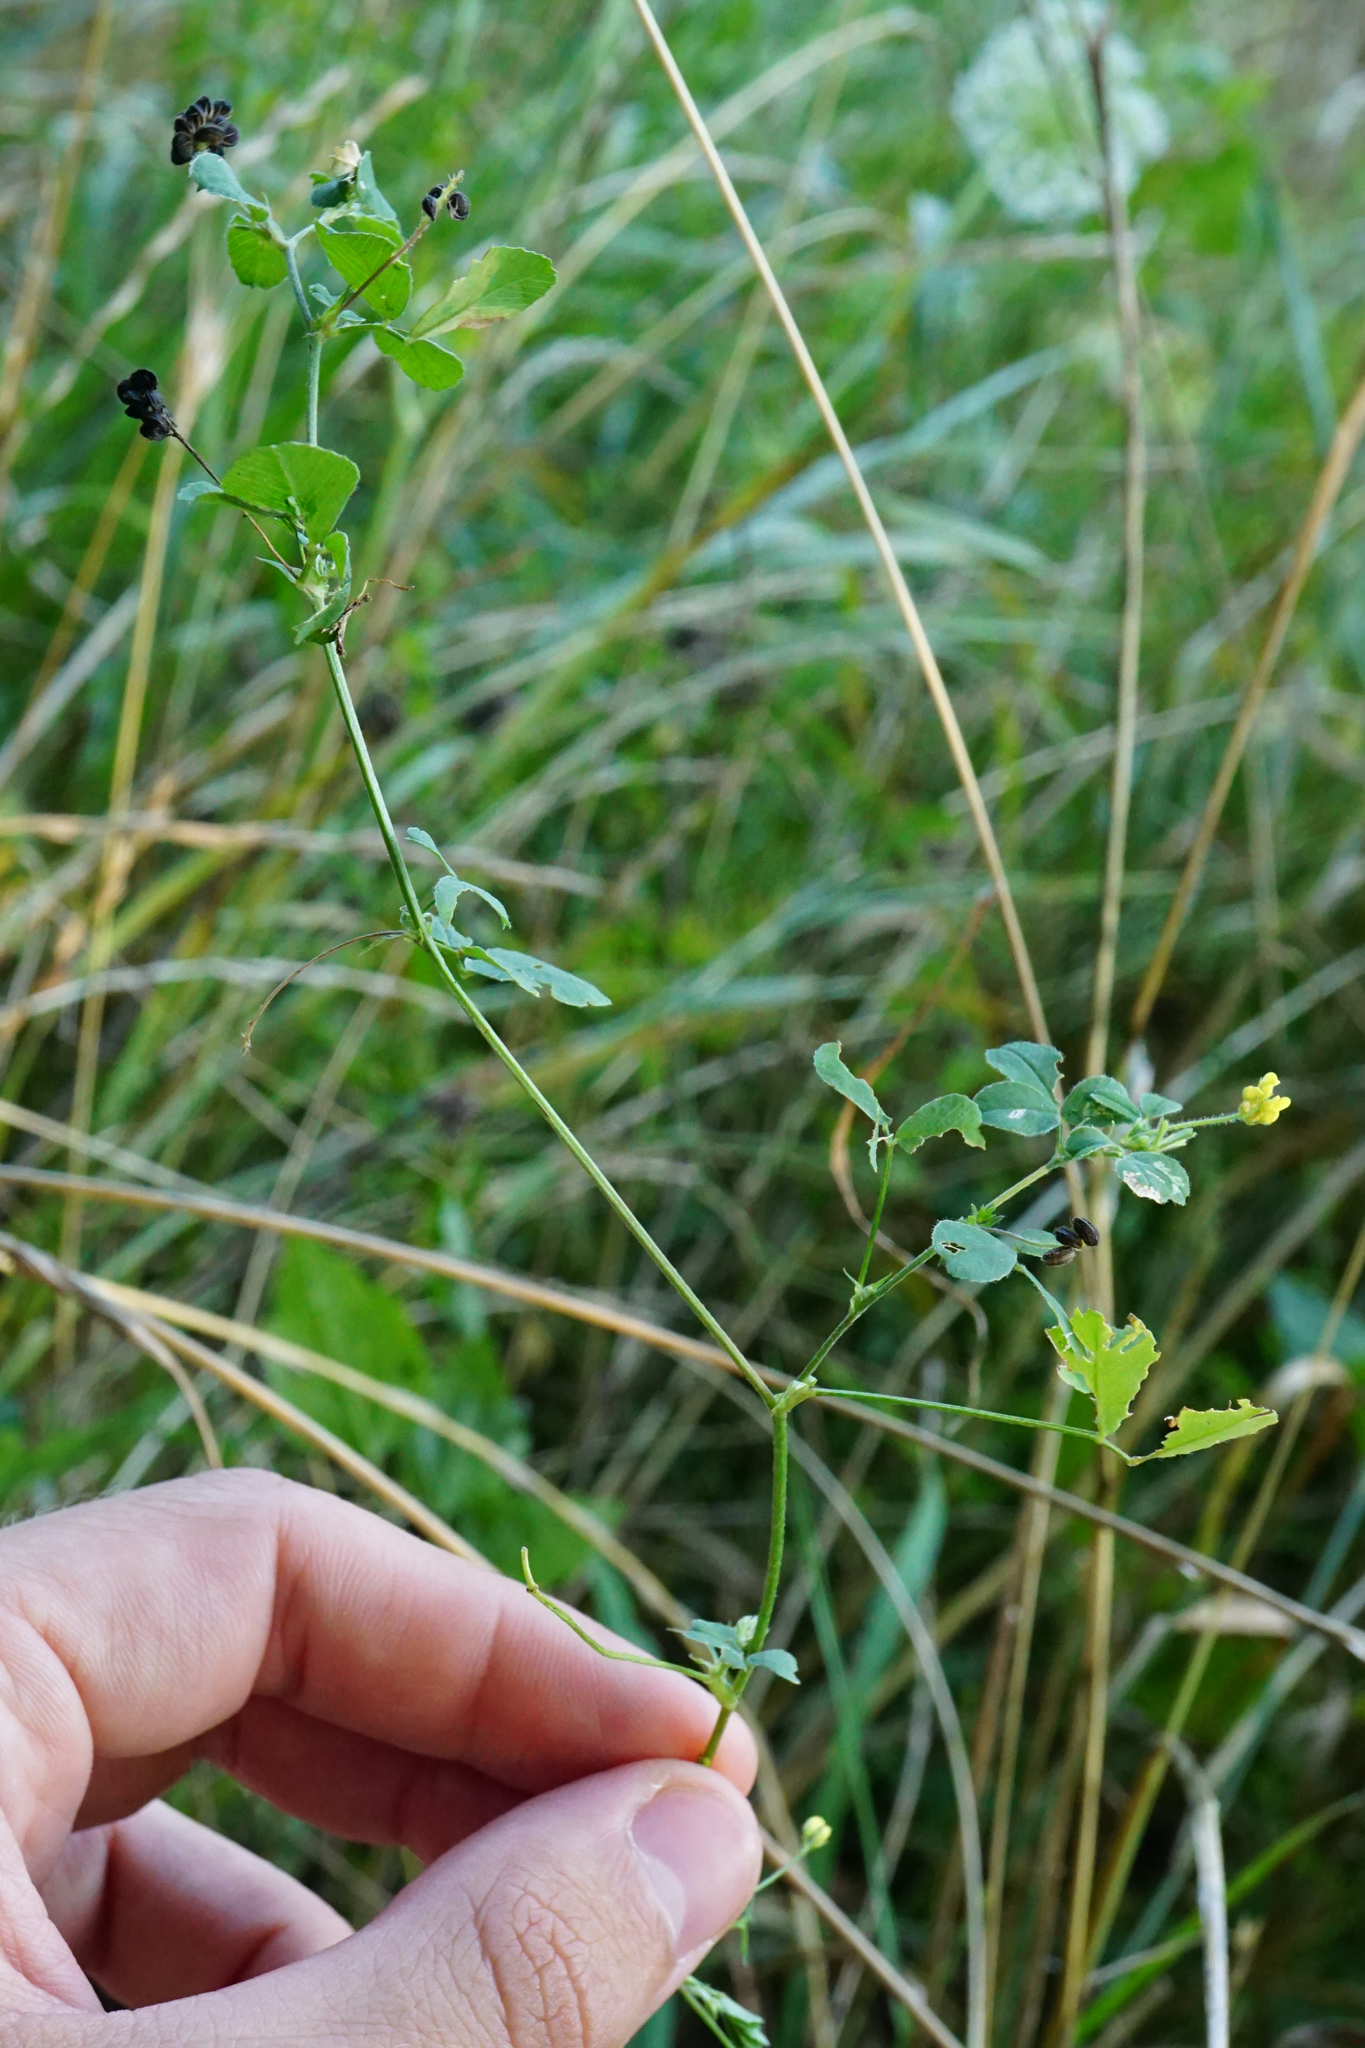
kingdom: Plantae
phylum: Tracheophyta
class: Magnoliopsida
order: Fabales
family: Fabaceae
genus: Medicago
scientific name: Medicago lupulina
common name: Black medick
